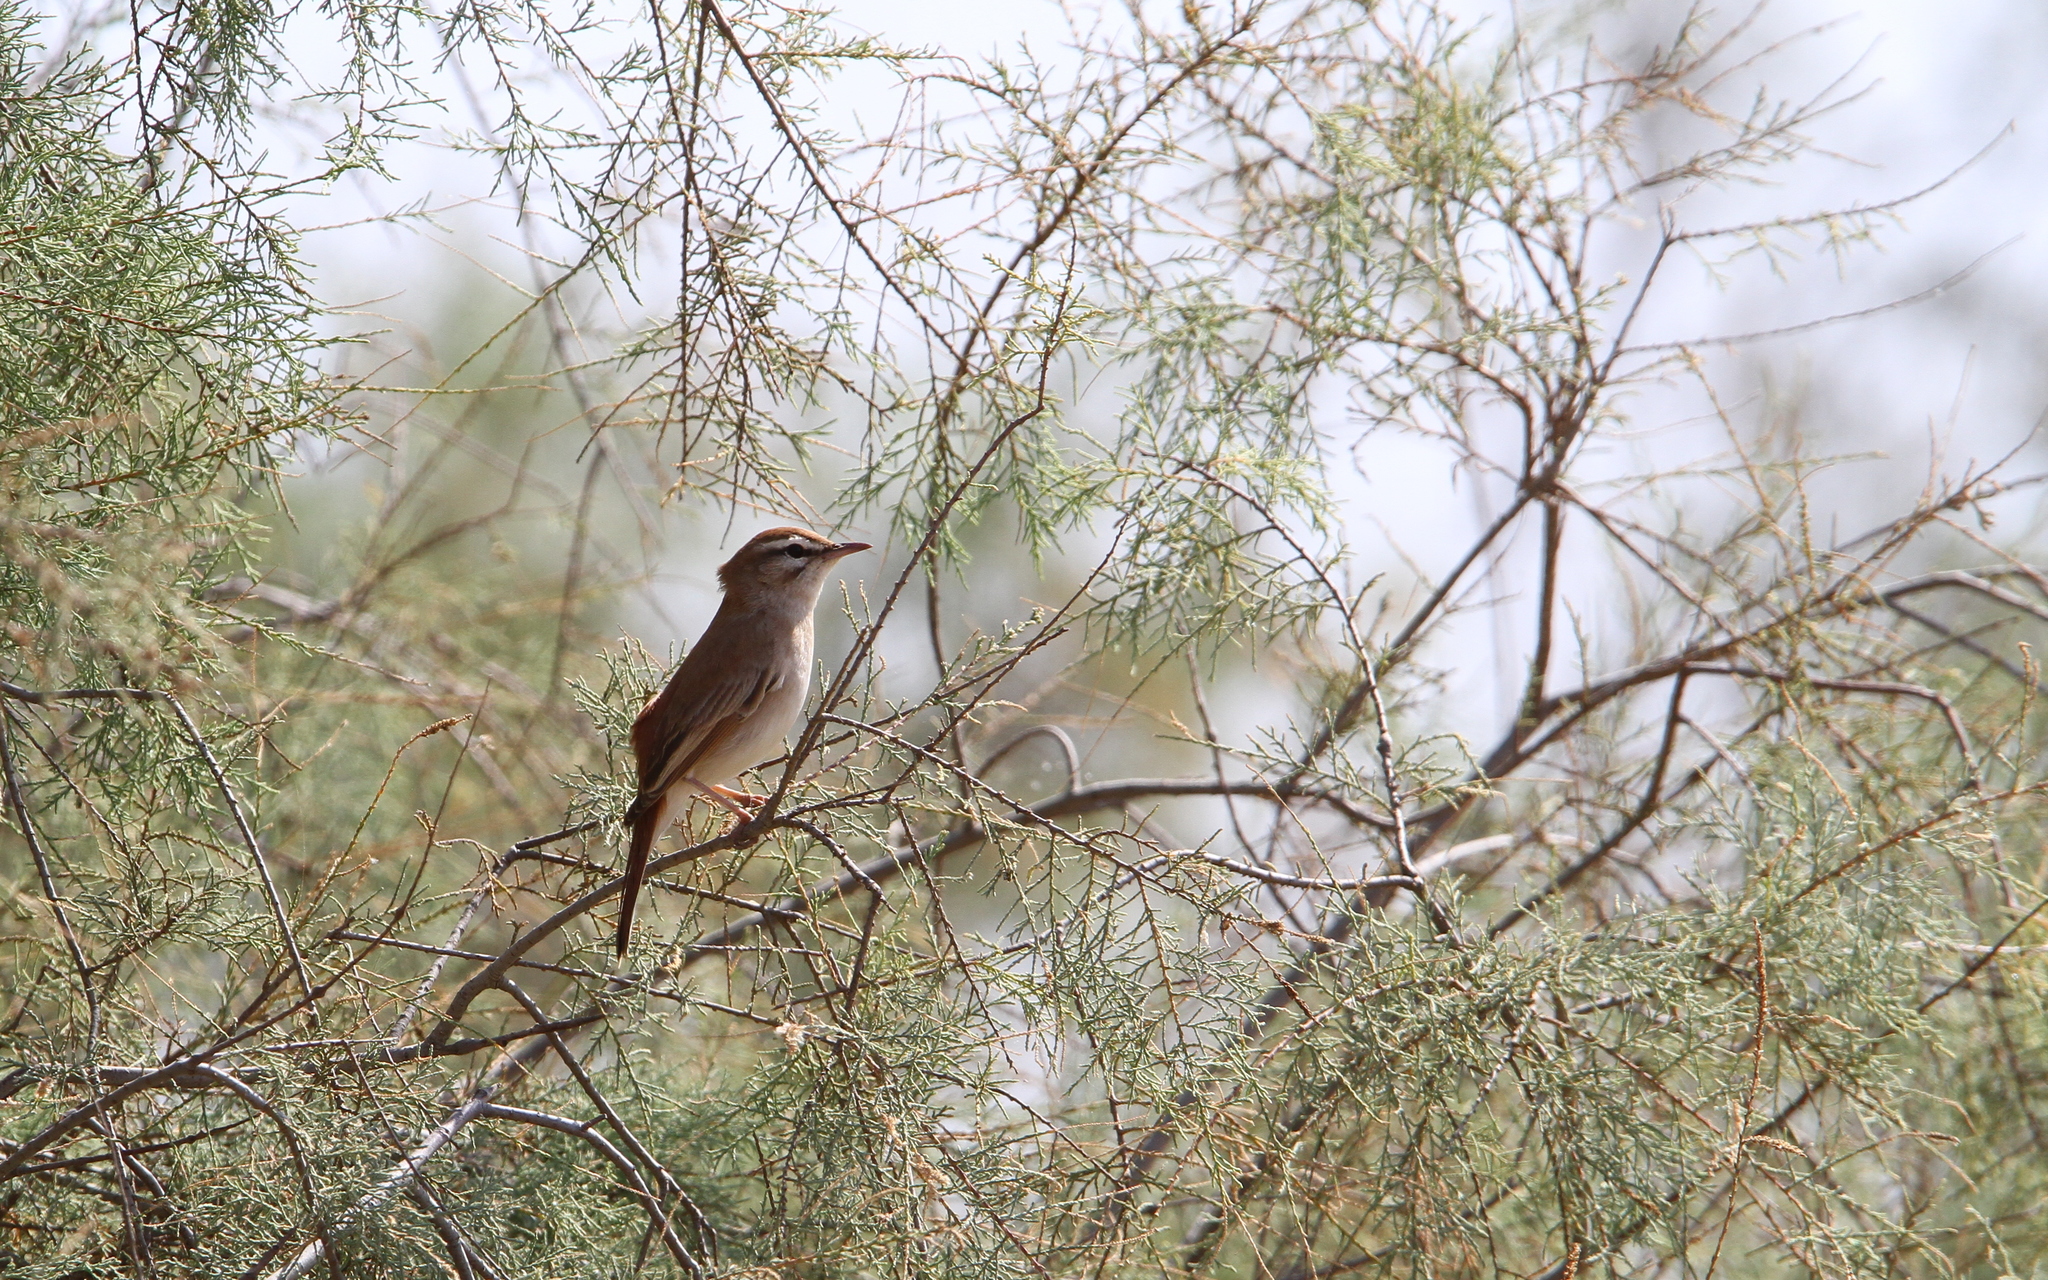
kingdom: Animalia
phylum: Chordata
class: Aves
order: Passeriformes
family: Muscicapidae
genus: Erythropygia
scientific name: Erythropygia galactotes
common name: Rufous-tailed scrub robin
